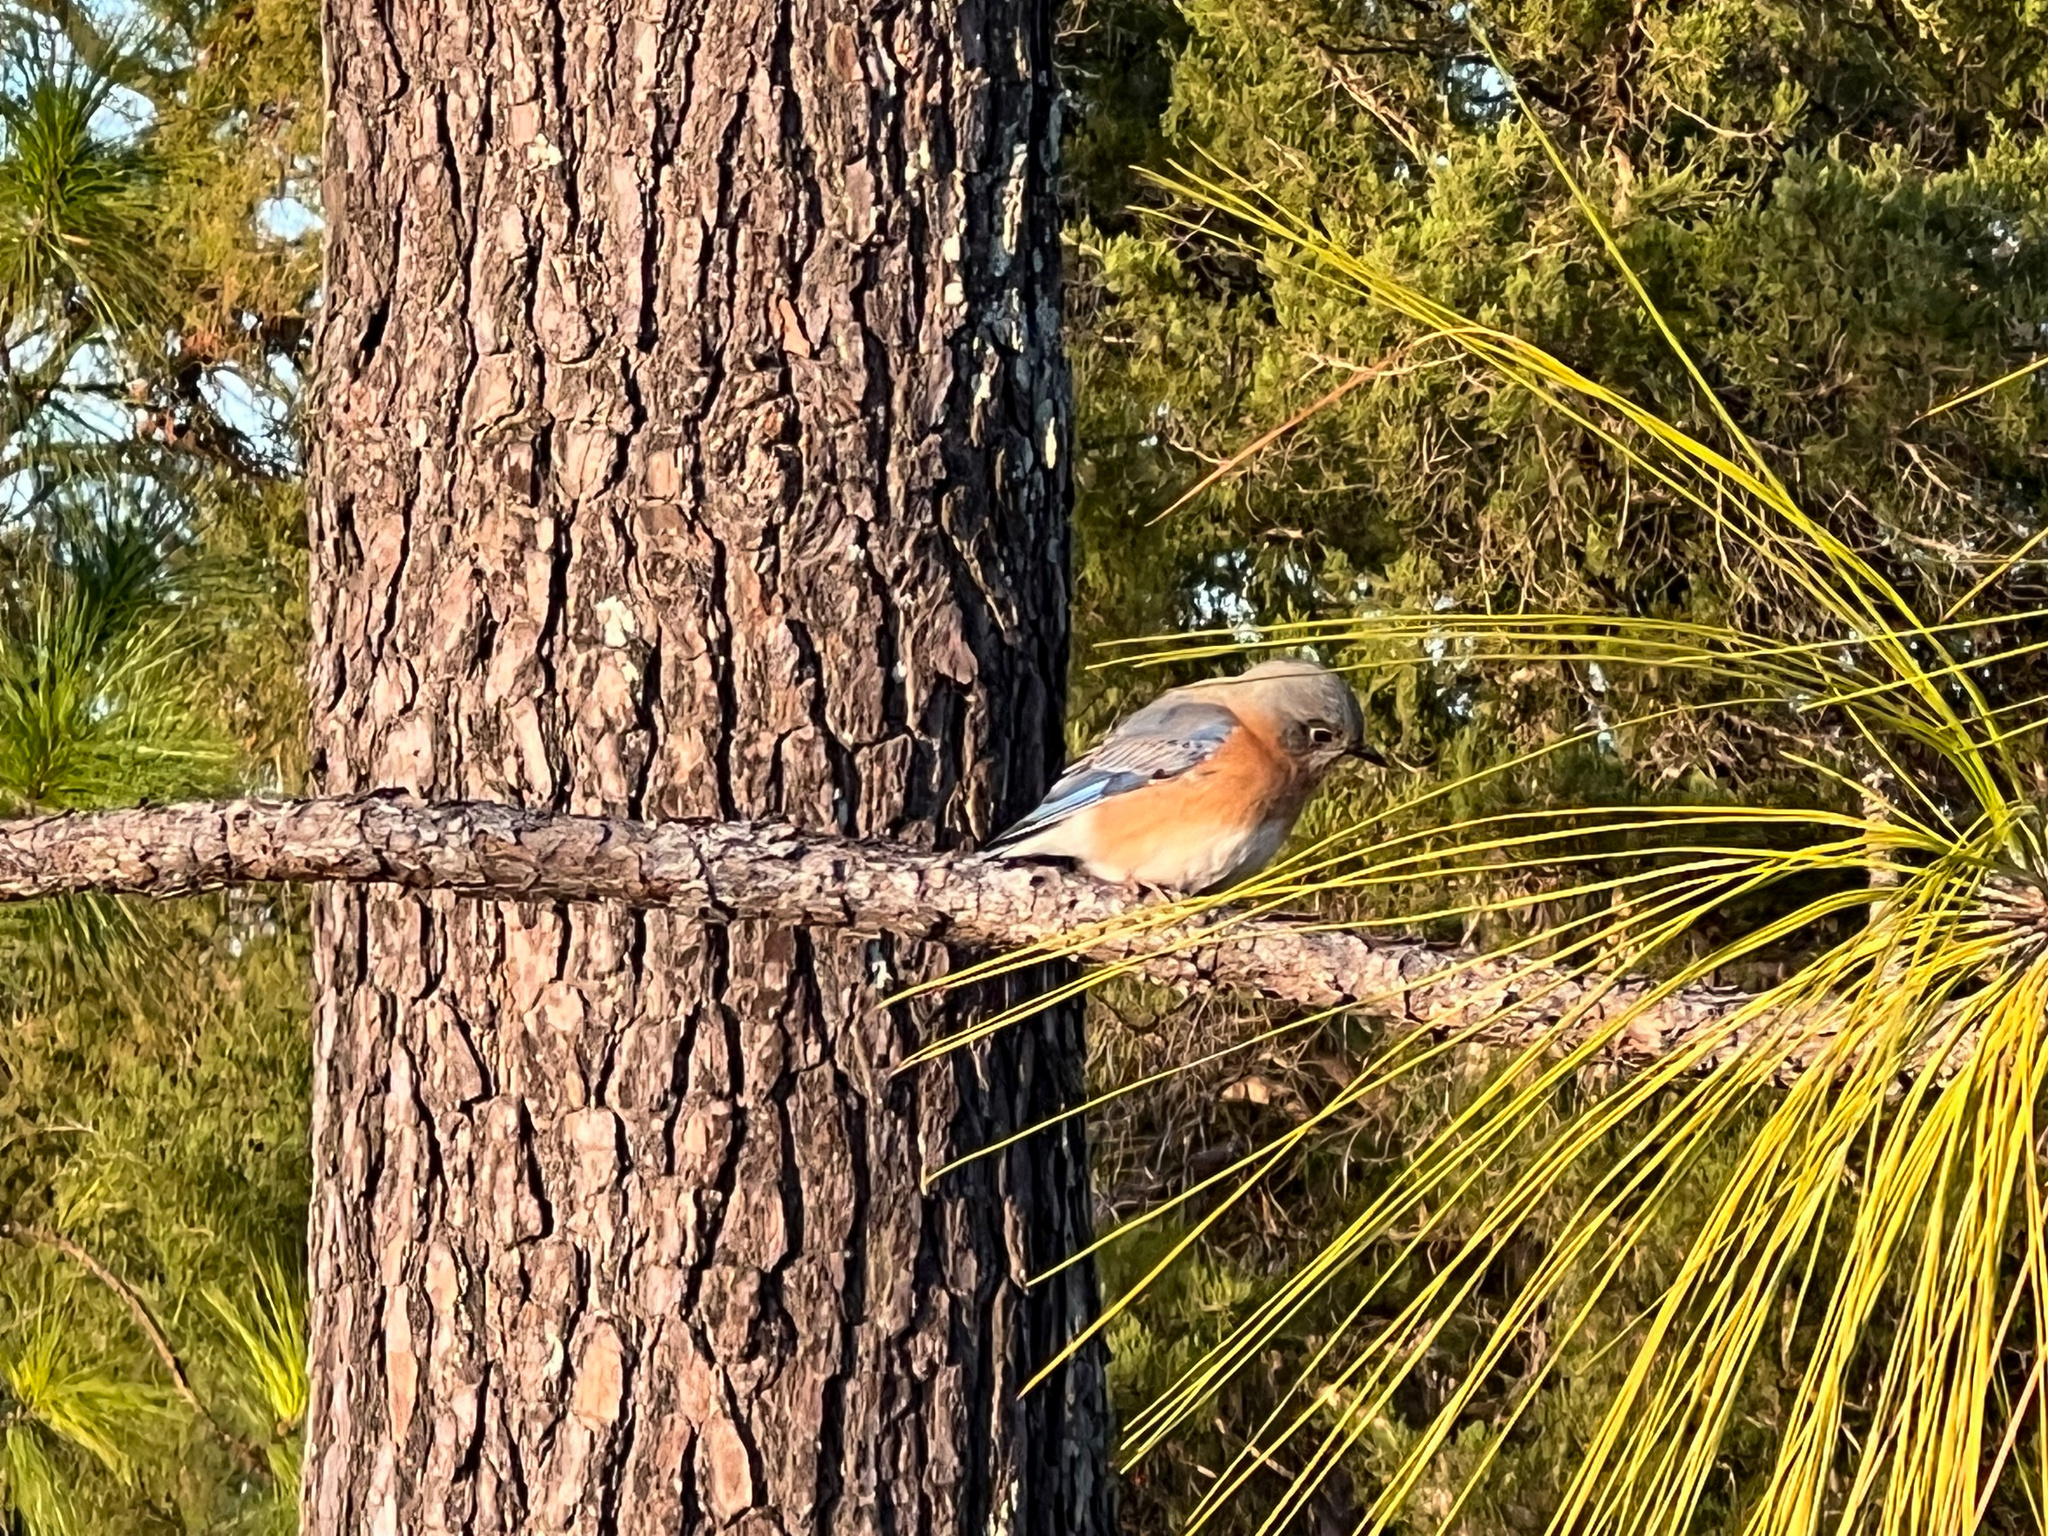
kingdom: Animalia
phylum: Chordata
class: Aves
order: Passeriformes
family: Turdidae
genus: Sialia
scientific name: Sialia sialis
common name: Eastern bluebird
